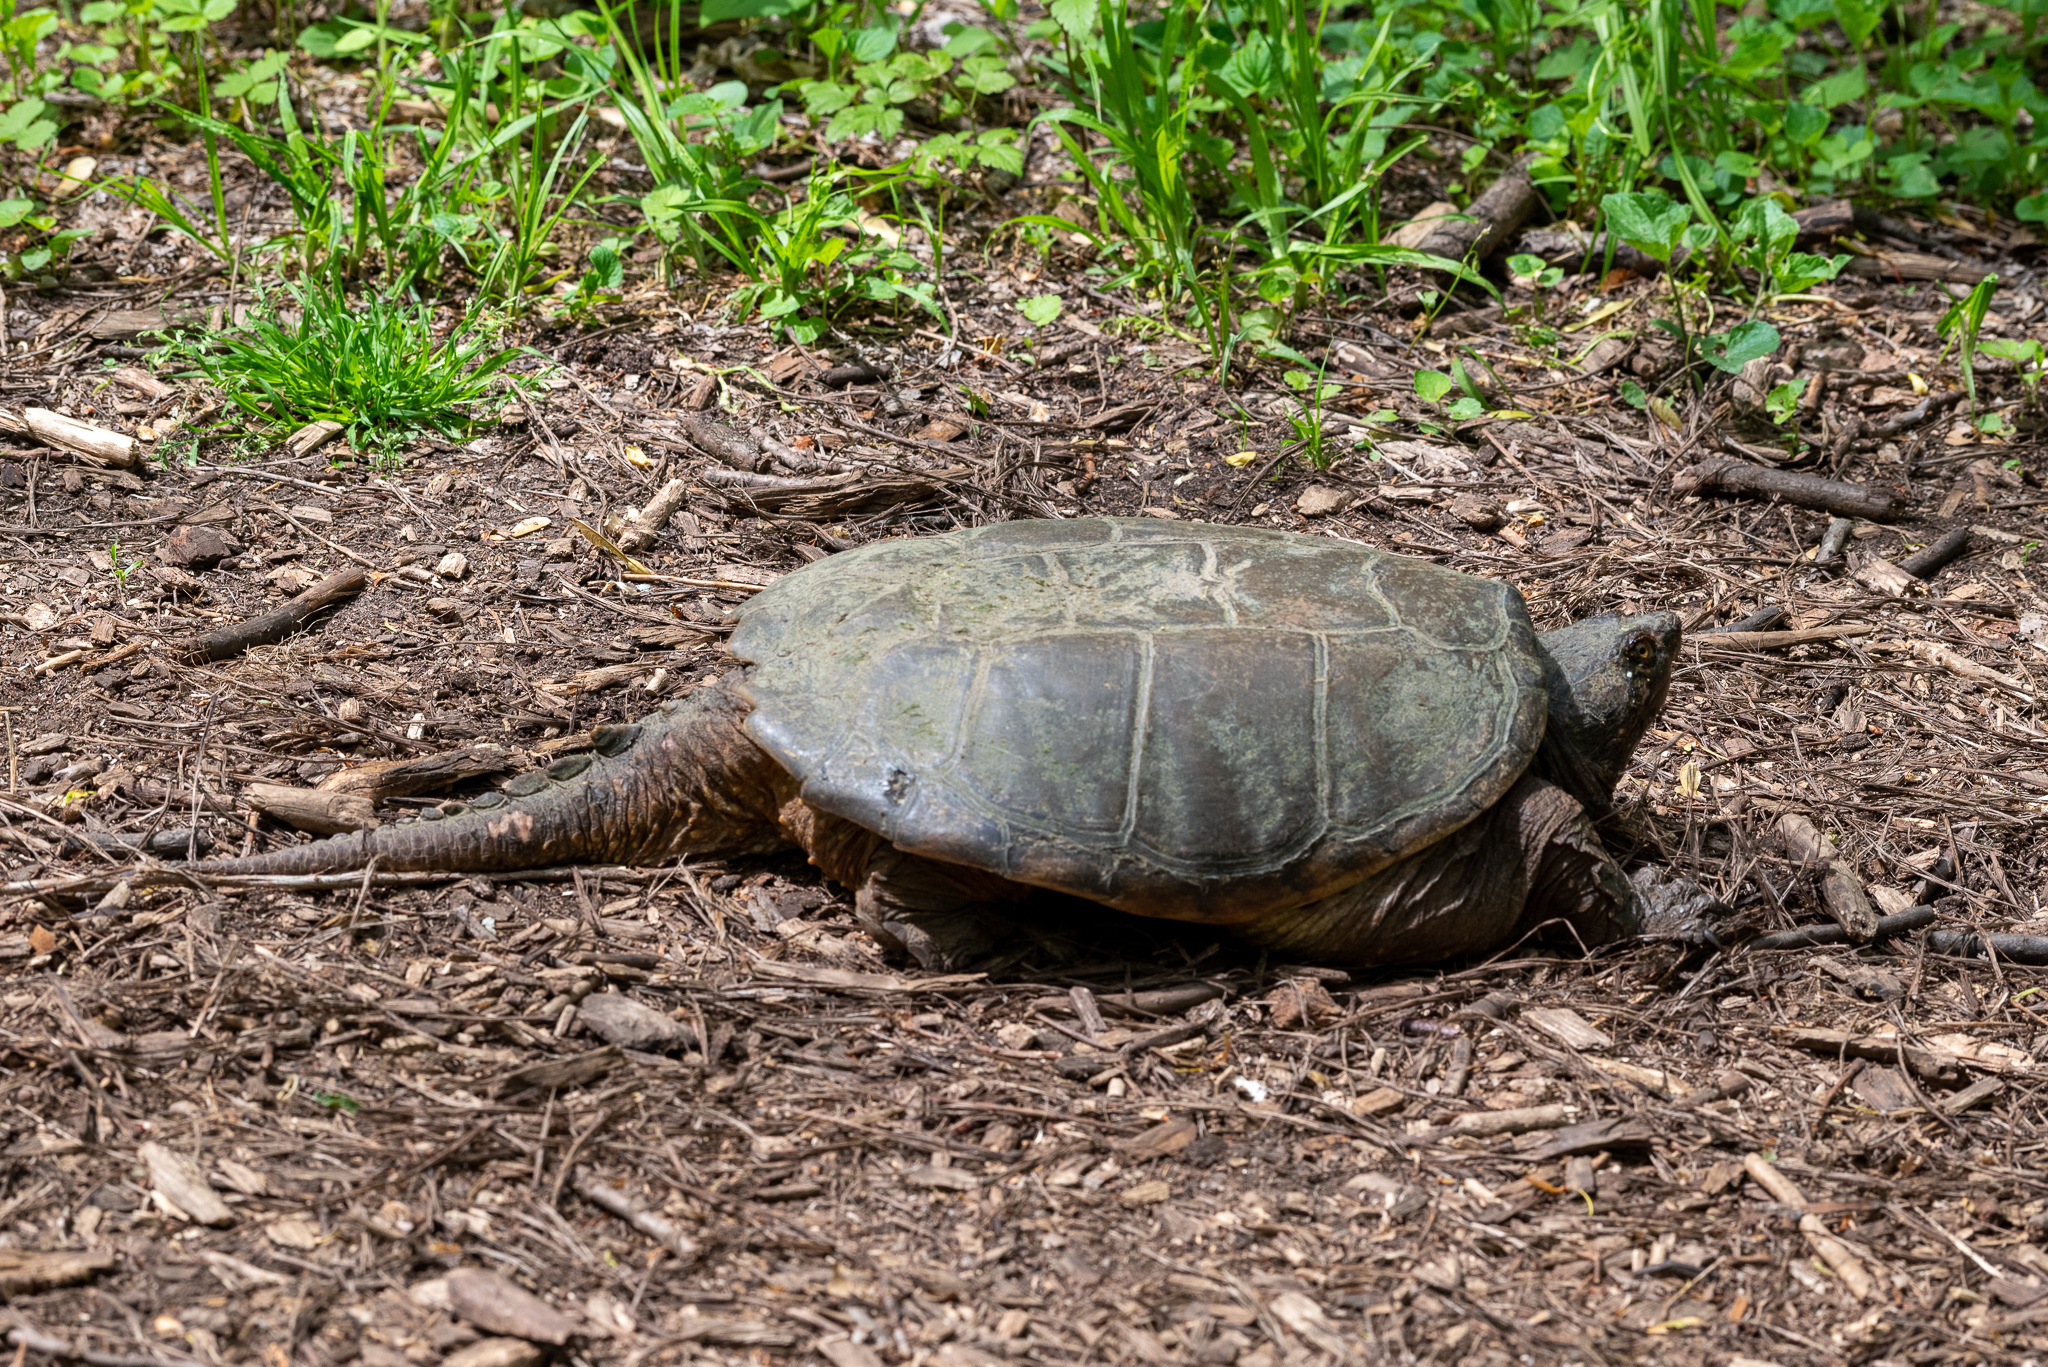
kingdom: Animalia
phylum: Chordata
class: Testudines
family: Chelydridae
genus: Chelydra
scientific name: Chelydra serpentina
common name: Common snapping turtle
